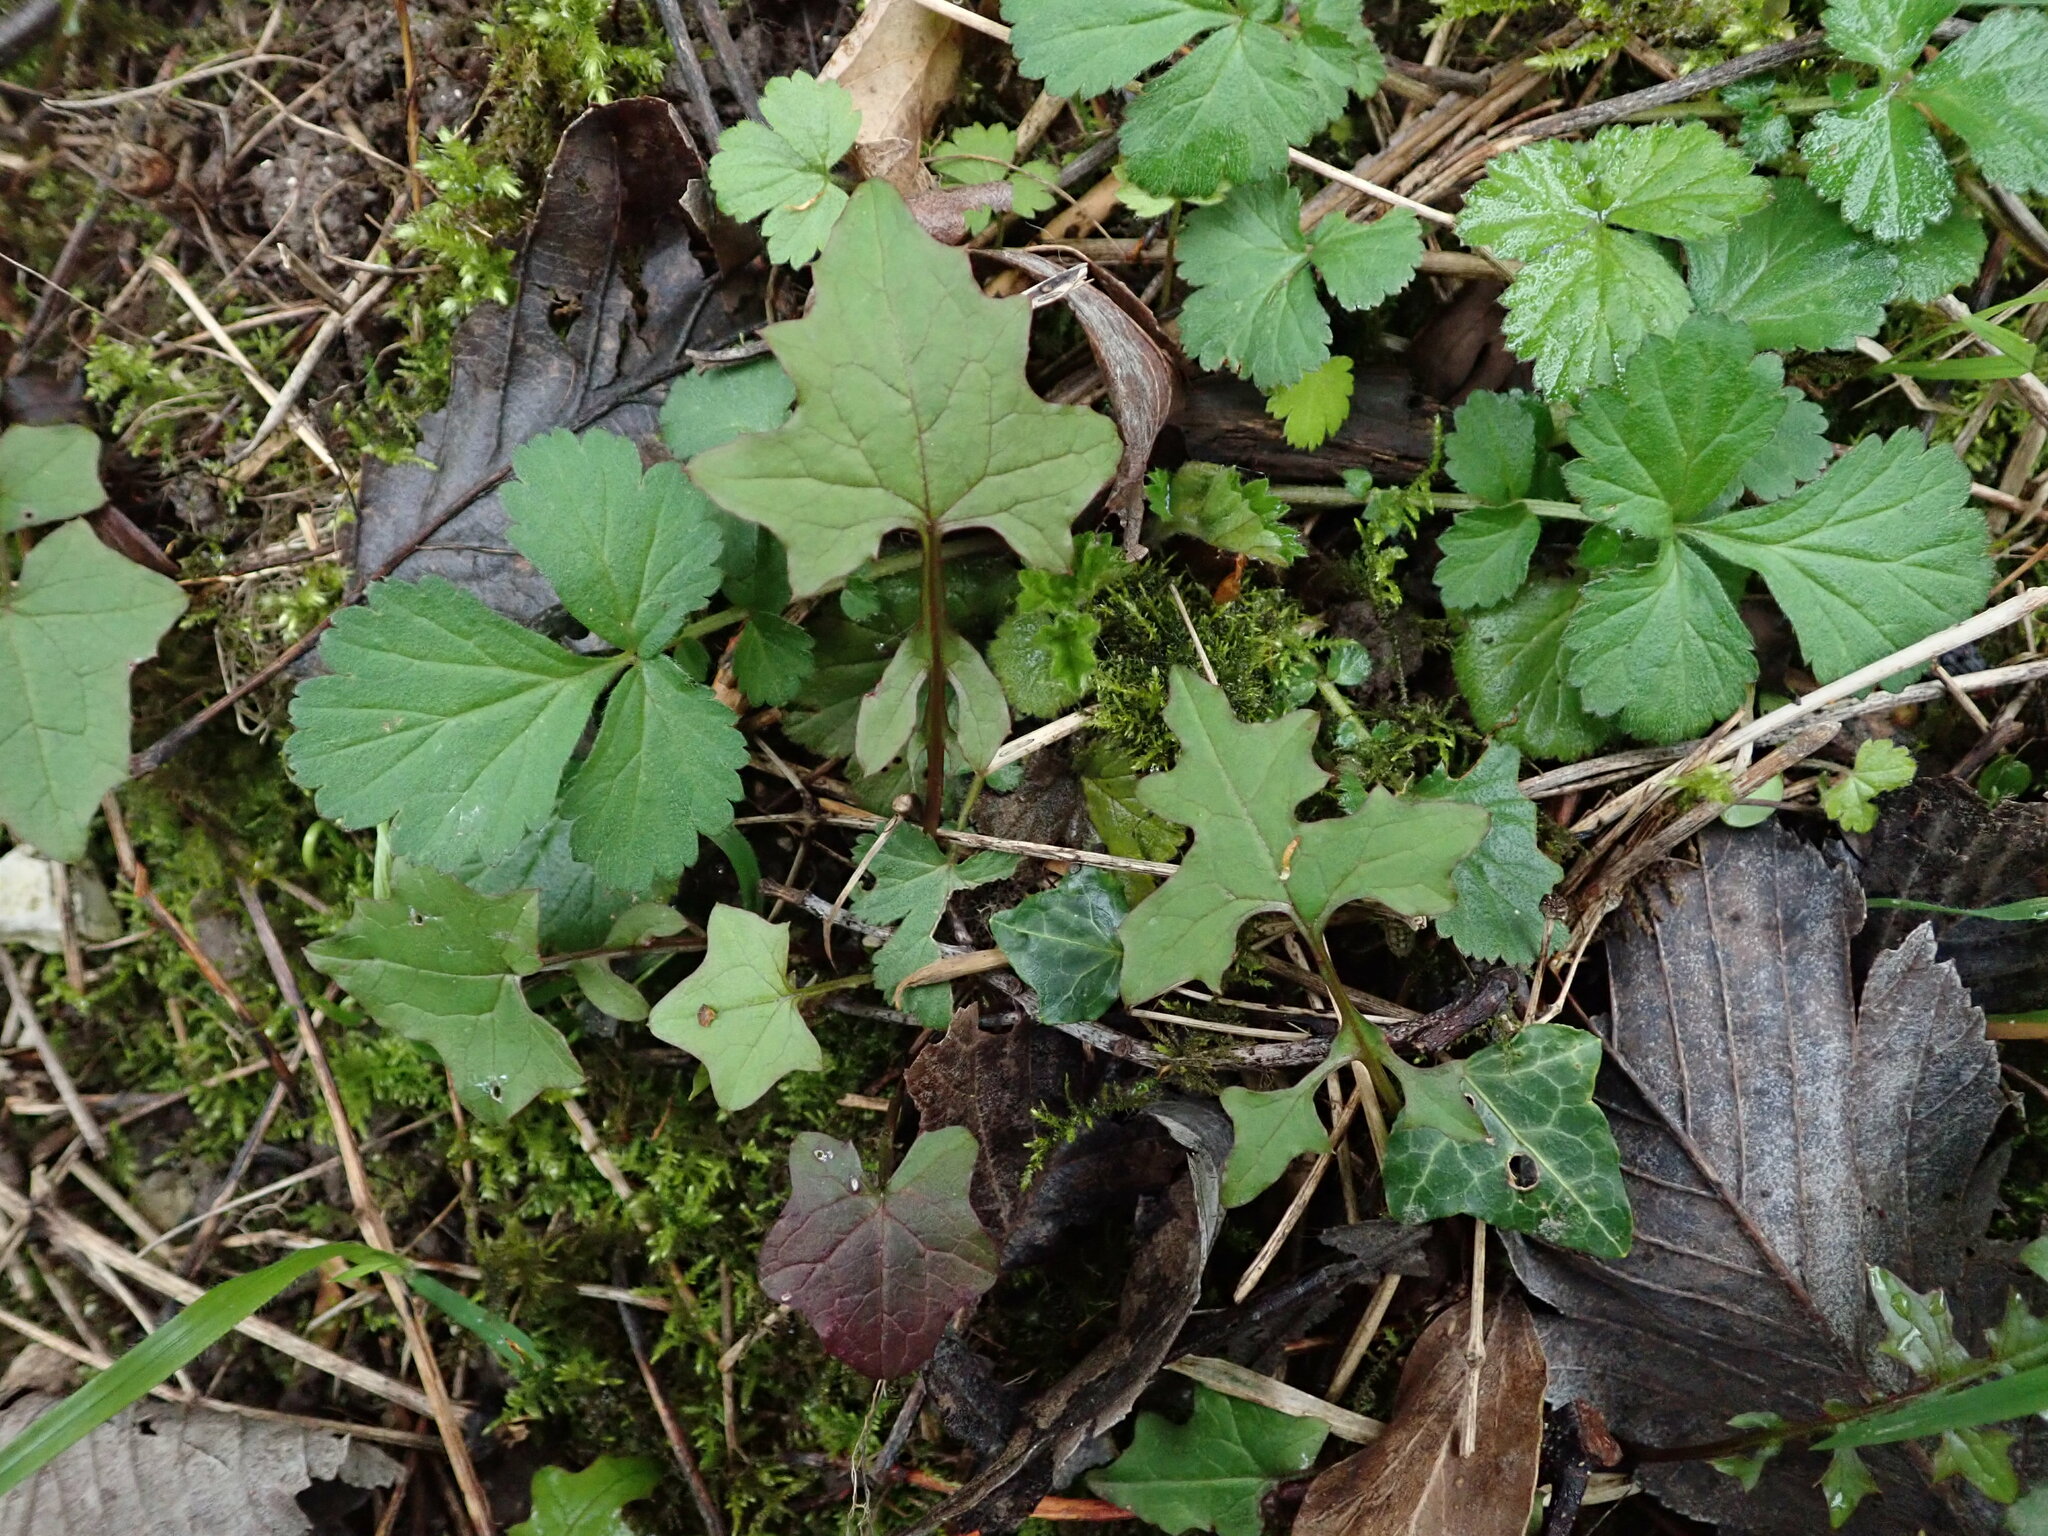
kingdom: Plantae
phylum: Tracheophyta
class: Magnoliopsida
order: Gentianales
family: Rubiaceae
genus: Galium
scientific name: Galium odoratum
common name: Sweet woodruff
